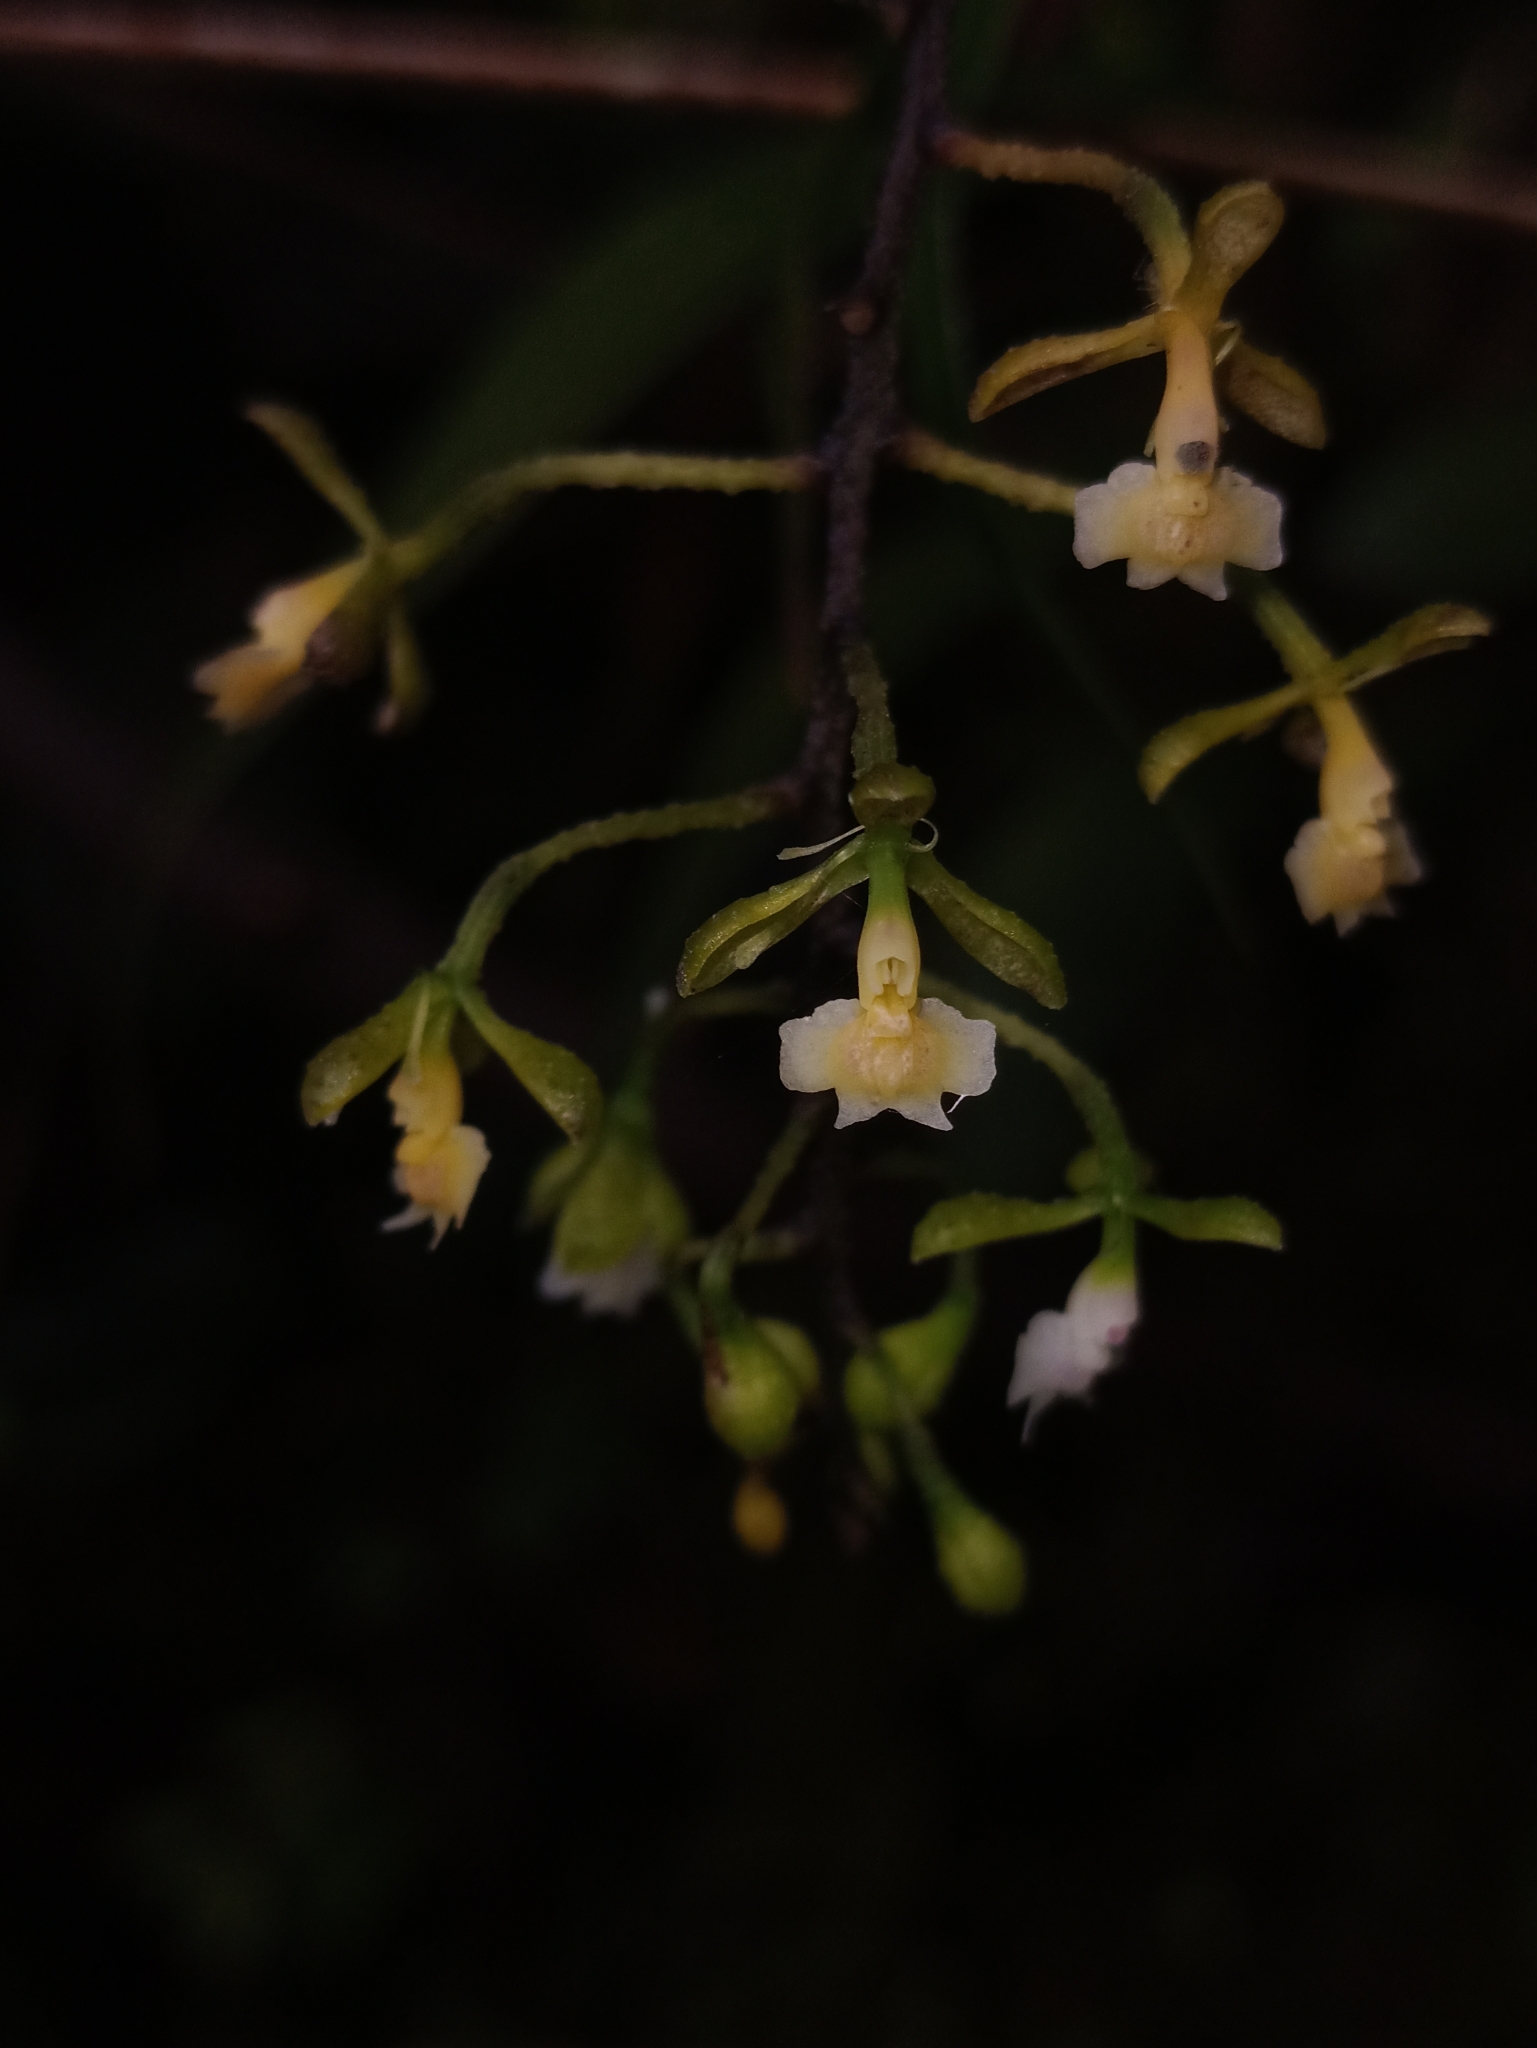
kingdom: Plantae
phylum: Tracheophyta
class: Liliopsida
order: Asparagales
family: Orchidaceae
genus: Epidendrum
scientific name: Epidendrum subnutans
